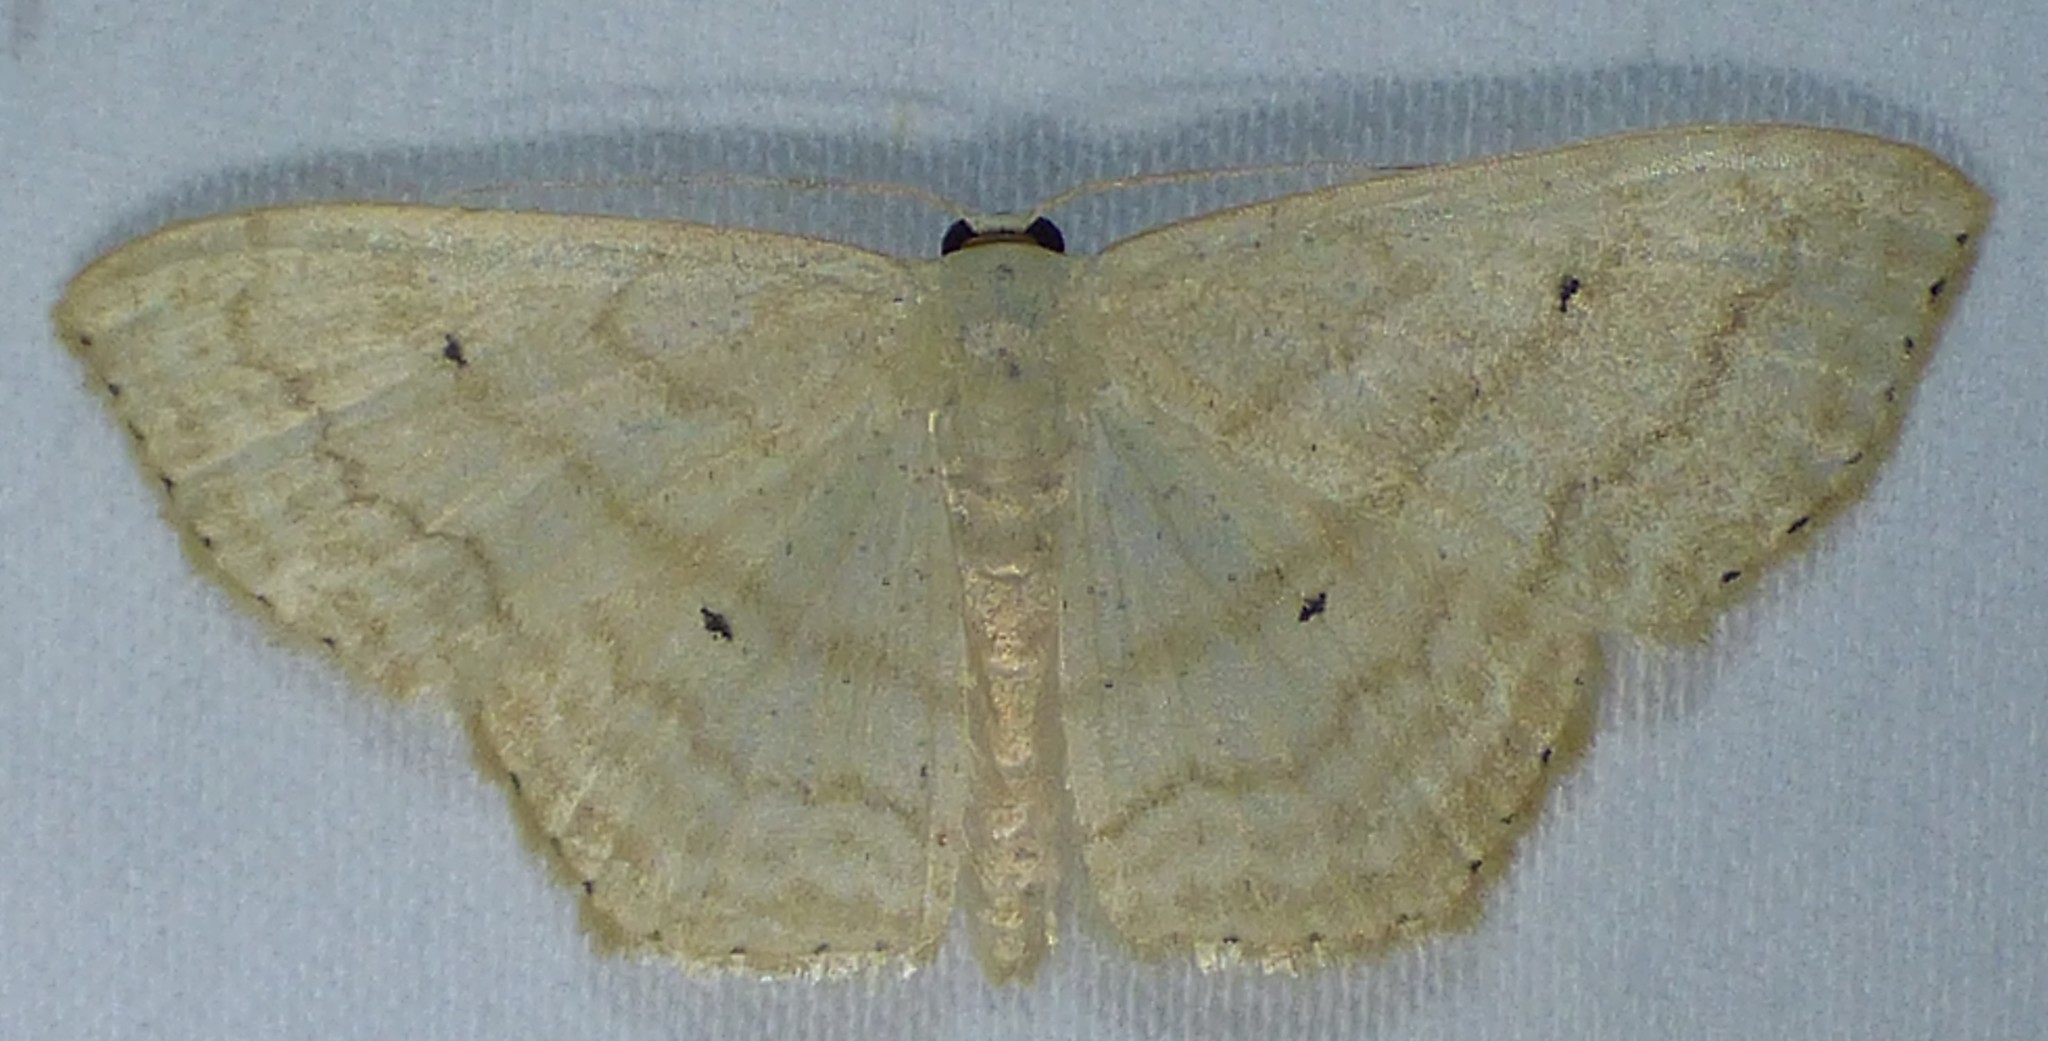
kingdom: Animalia
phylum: Arthropoda
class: Insecta
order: Lepidoptera
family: Geometridae
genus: Scopula
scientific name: Scopula limboundata
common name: Large lace border
